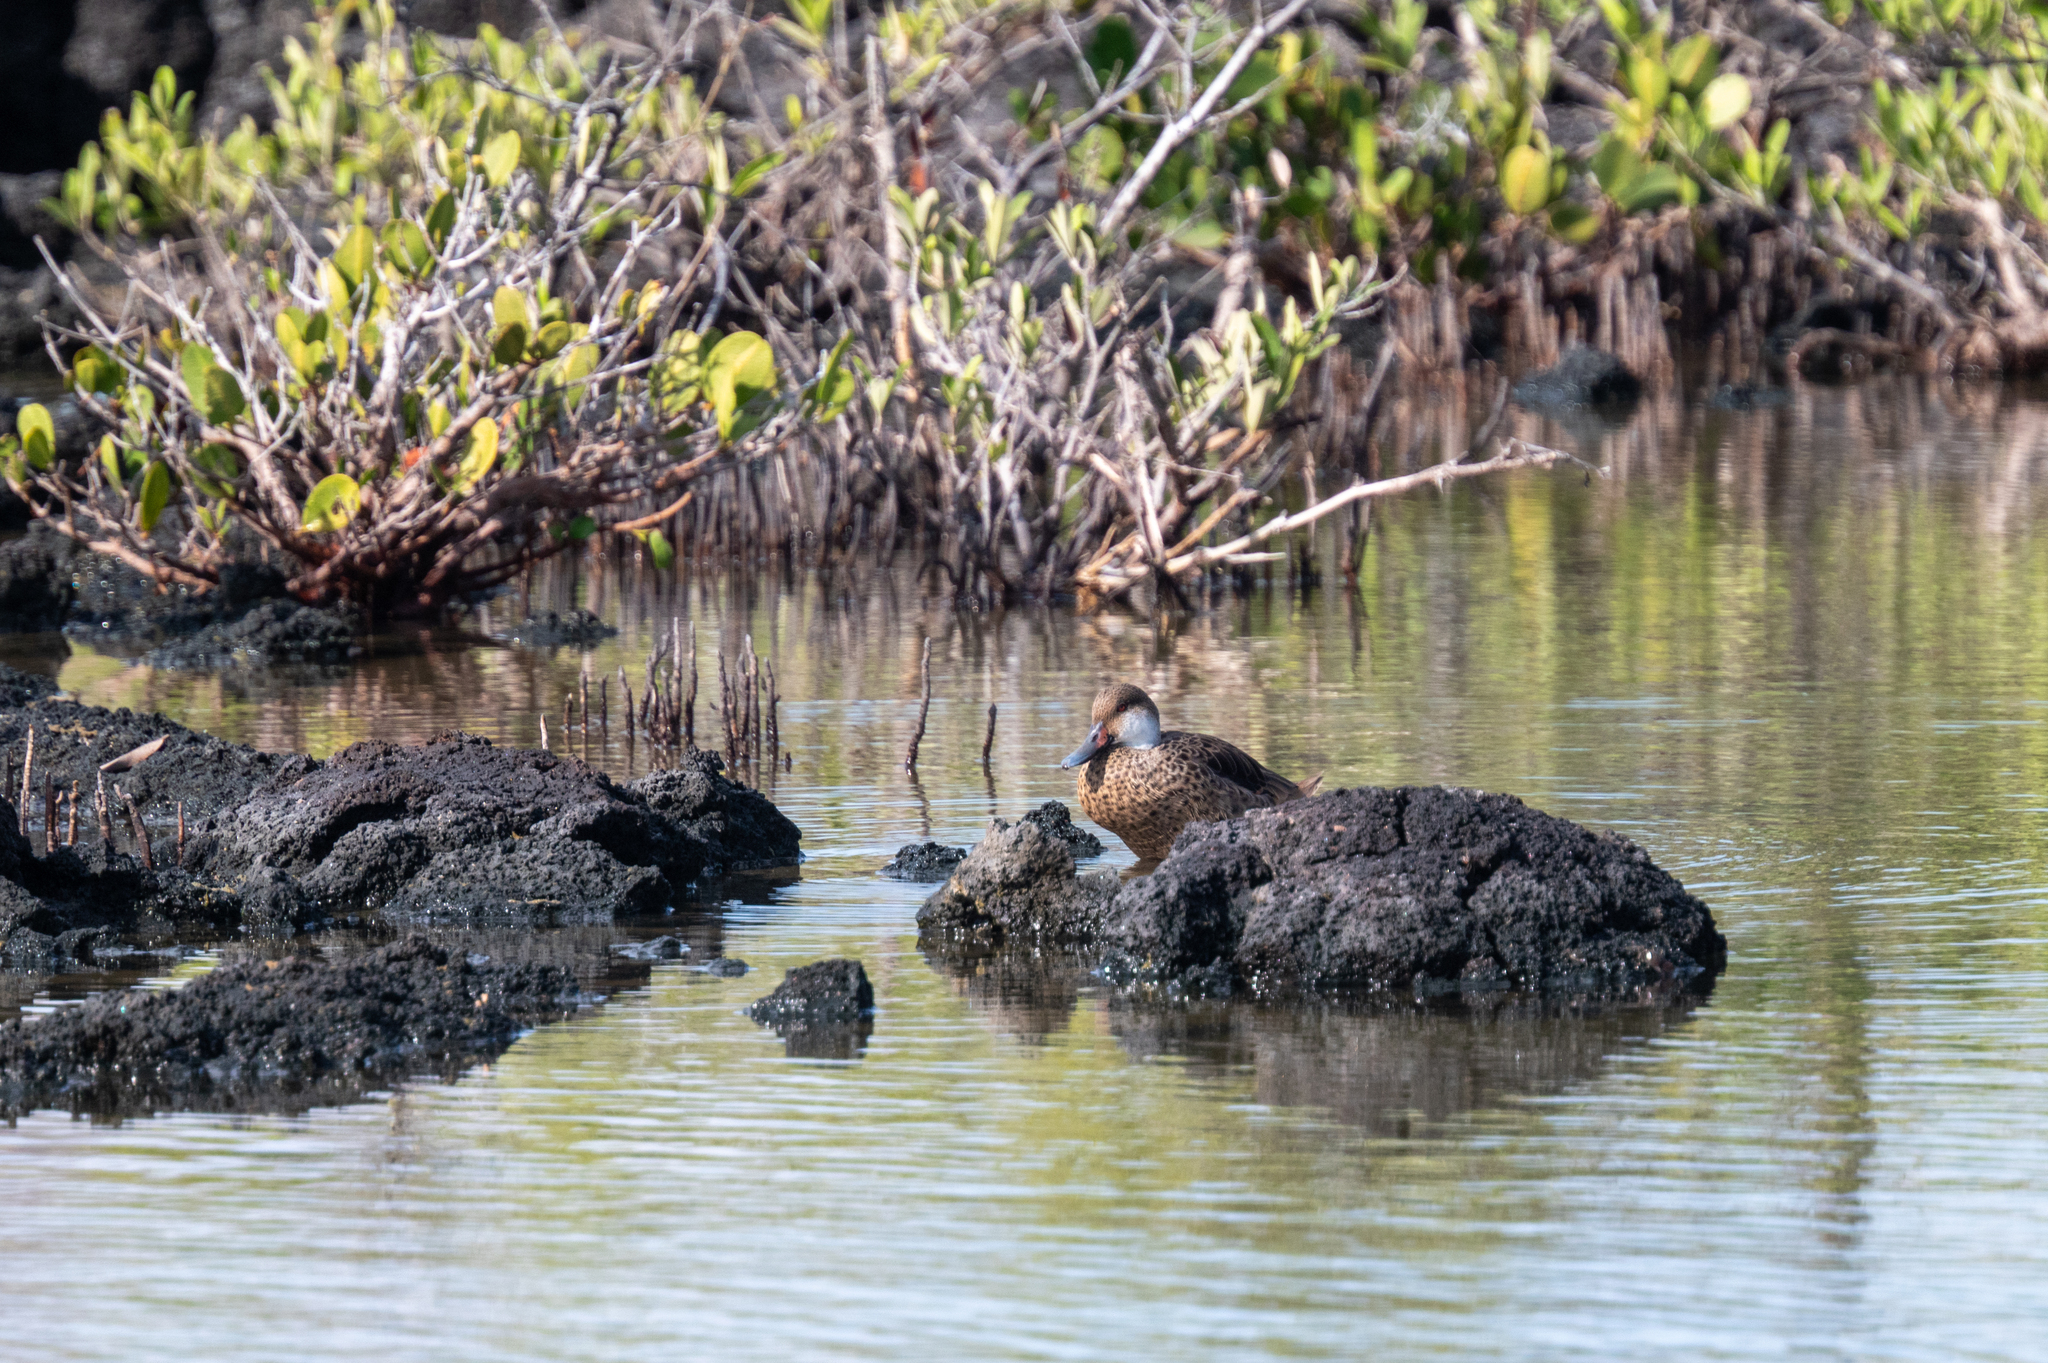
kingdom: Animalia
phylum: Chordata
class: Aves
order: Anseriformes
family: Anatidae
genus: Anas
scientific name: Anas bahamensis
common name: White-cheeked pintail
